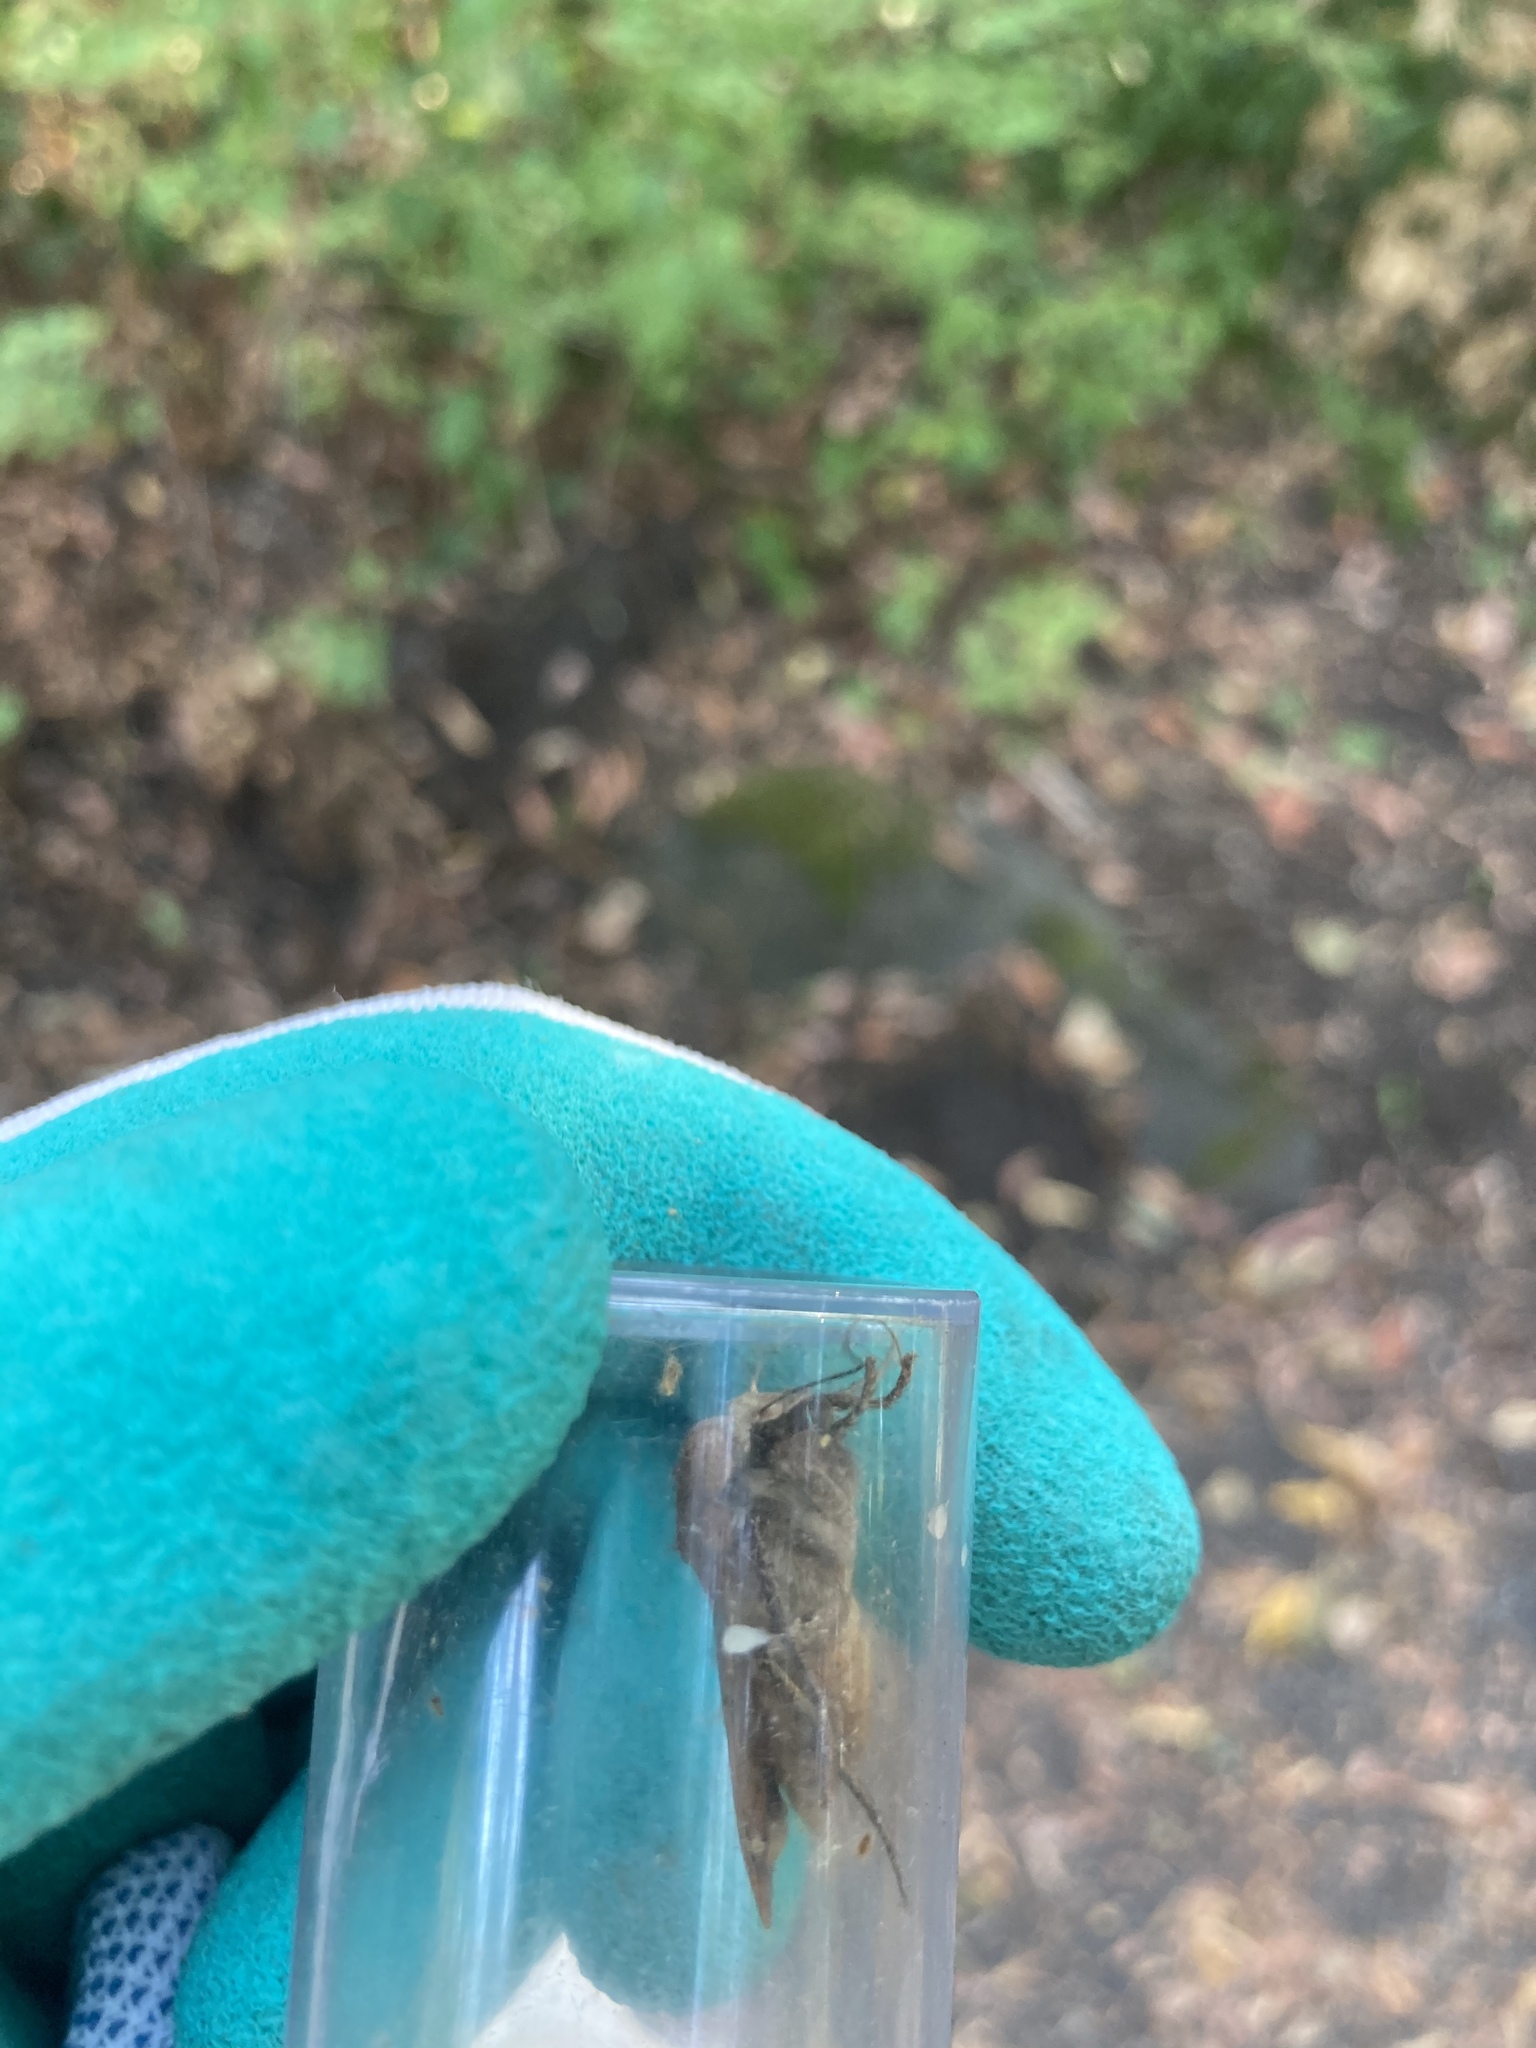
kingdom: Animalia
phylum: Arthropoda
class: Insecta
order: Lepidoptera
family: Noctuidae
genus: Noctua
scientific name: Noctua pronuba
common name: Large yellow underwing
